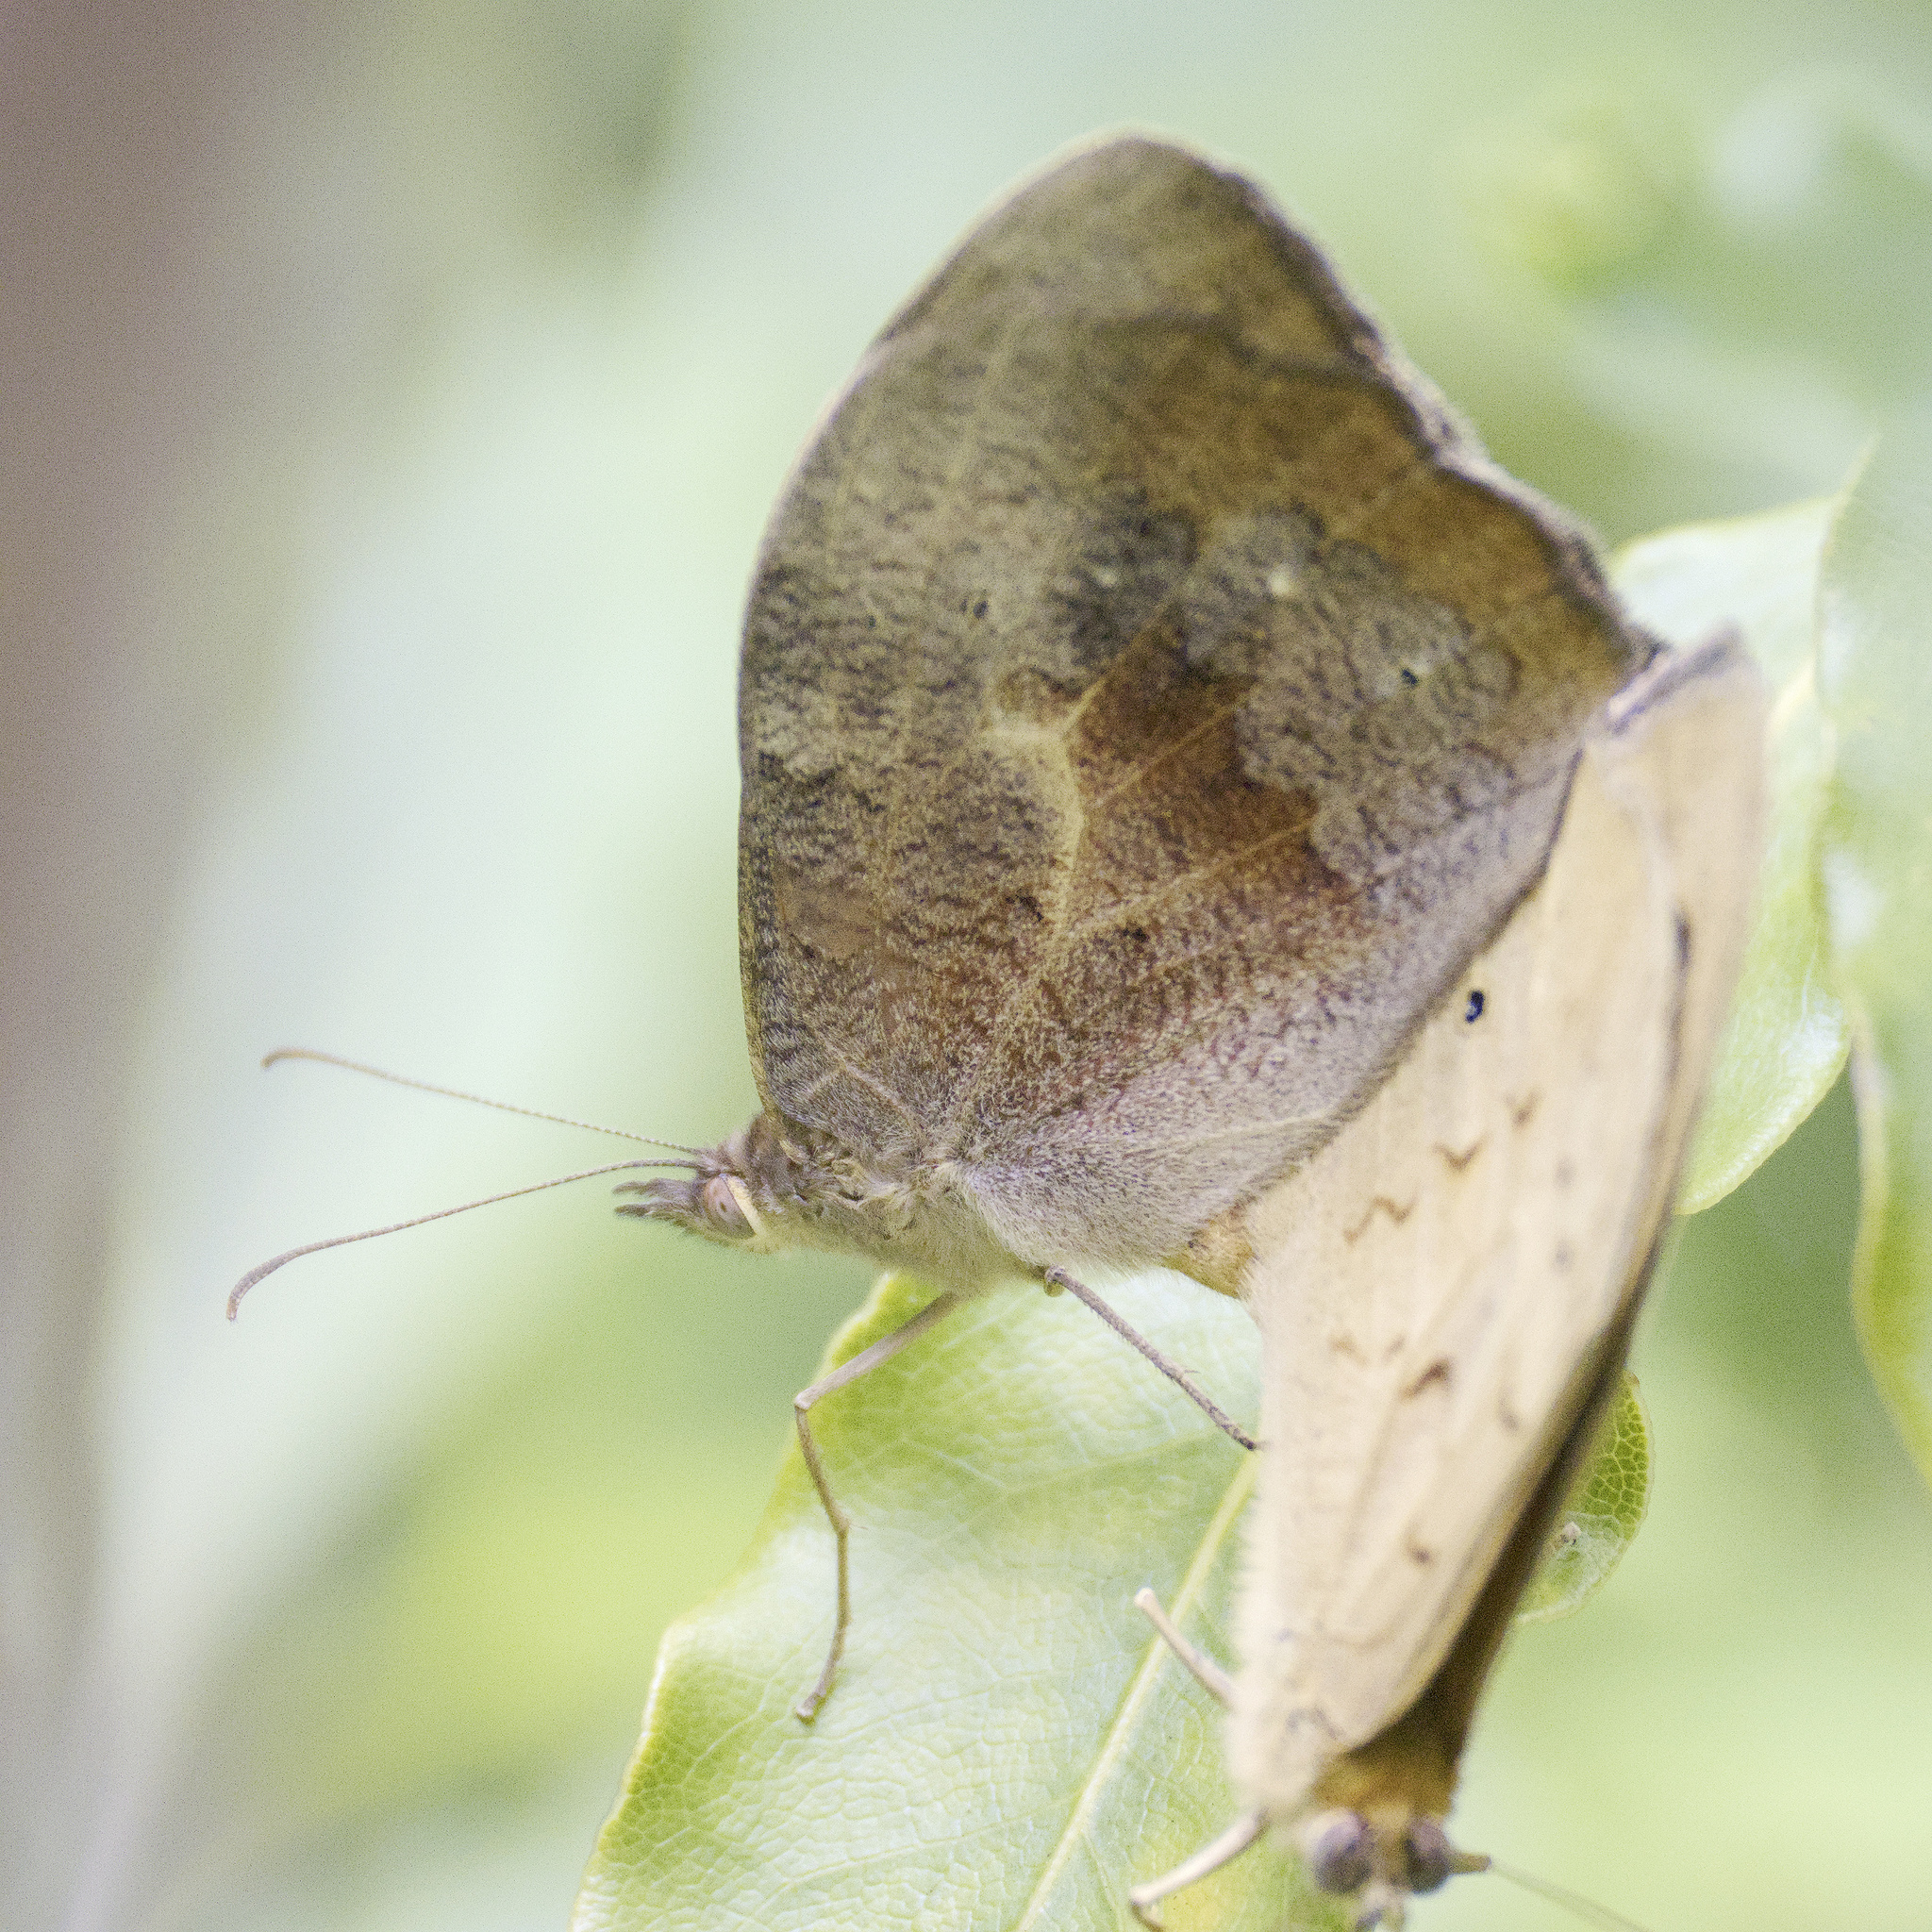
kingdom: Animalia
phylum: Arthropoda
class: Insecta
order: Lepidoptera
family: Nymphalidae
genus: Heteronympha
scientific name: Heteronympha merope
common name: Common brown
